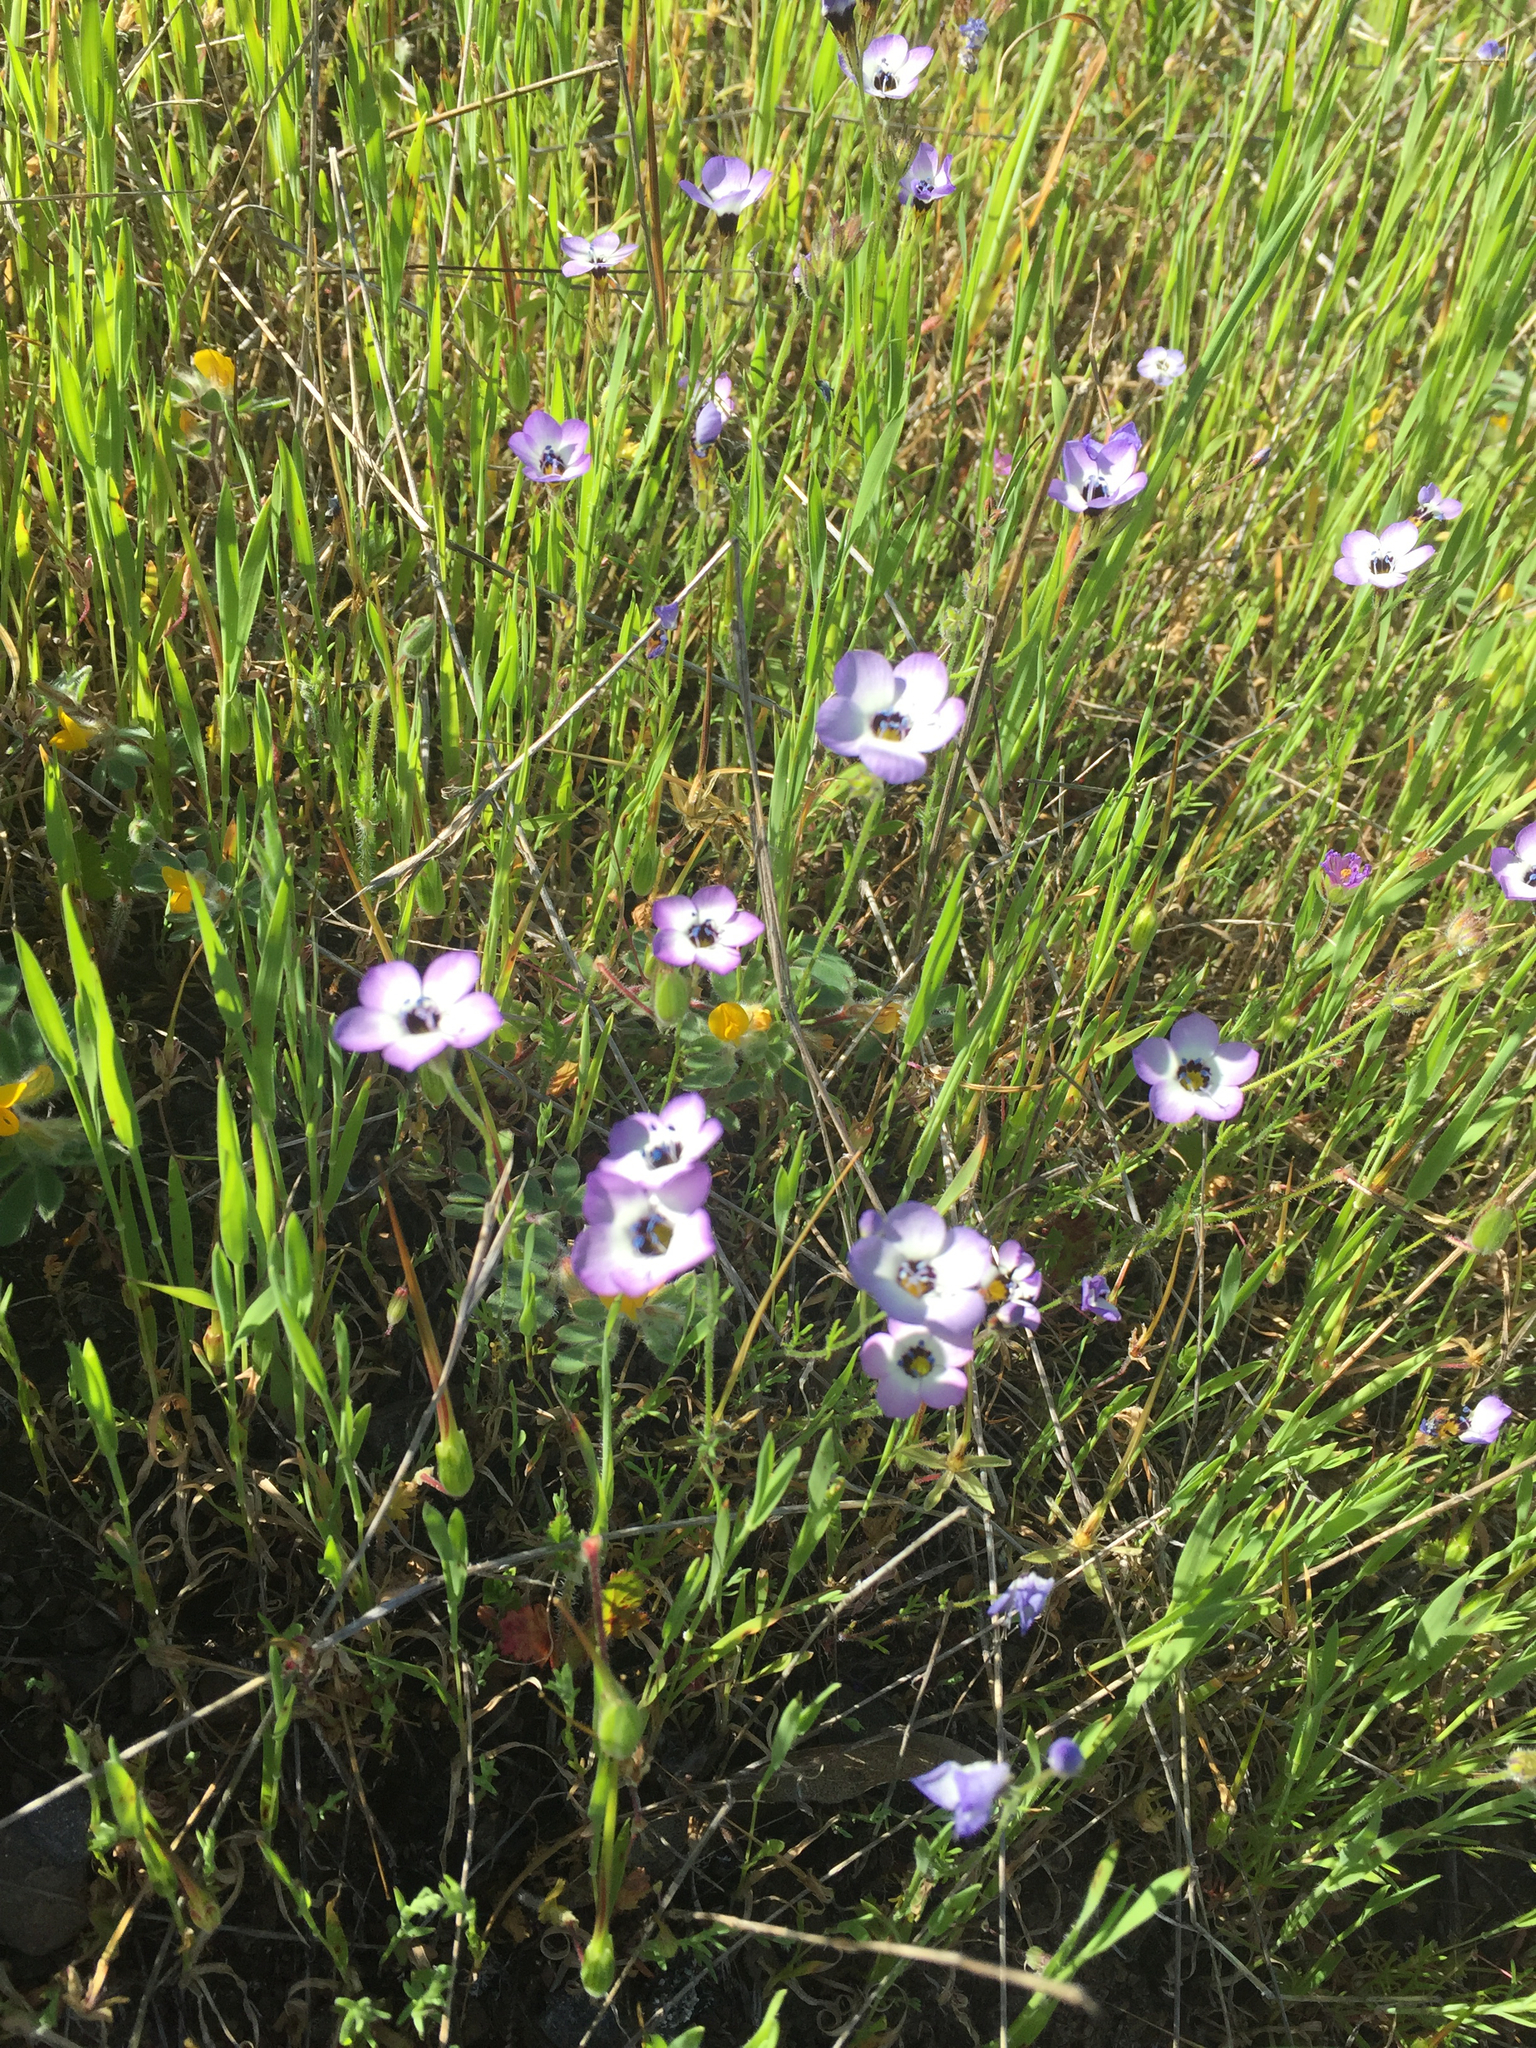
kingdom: Plantae
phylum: Tracheophyta
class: Magnoliopsida
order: Ericales
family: Polemoniaceae
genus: Gilia
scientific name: Gilia tricolor
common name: Bird's-eyes
